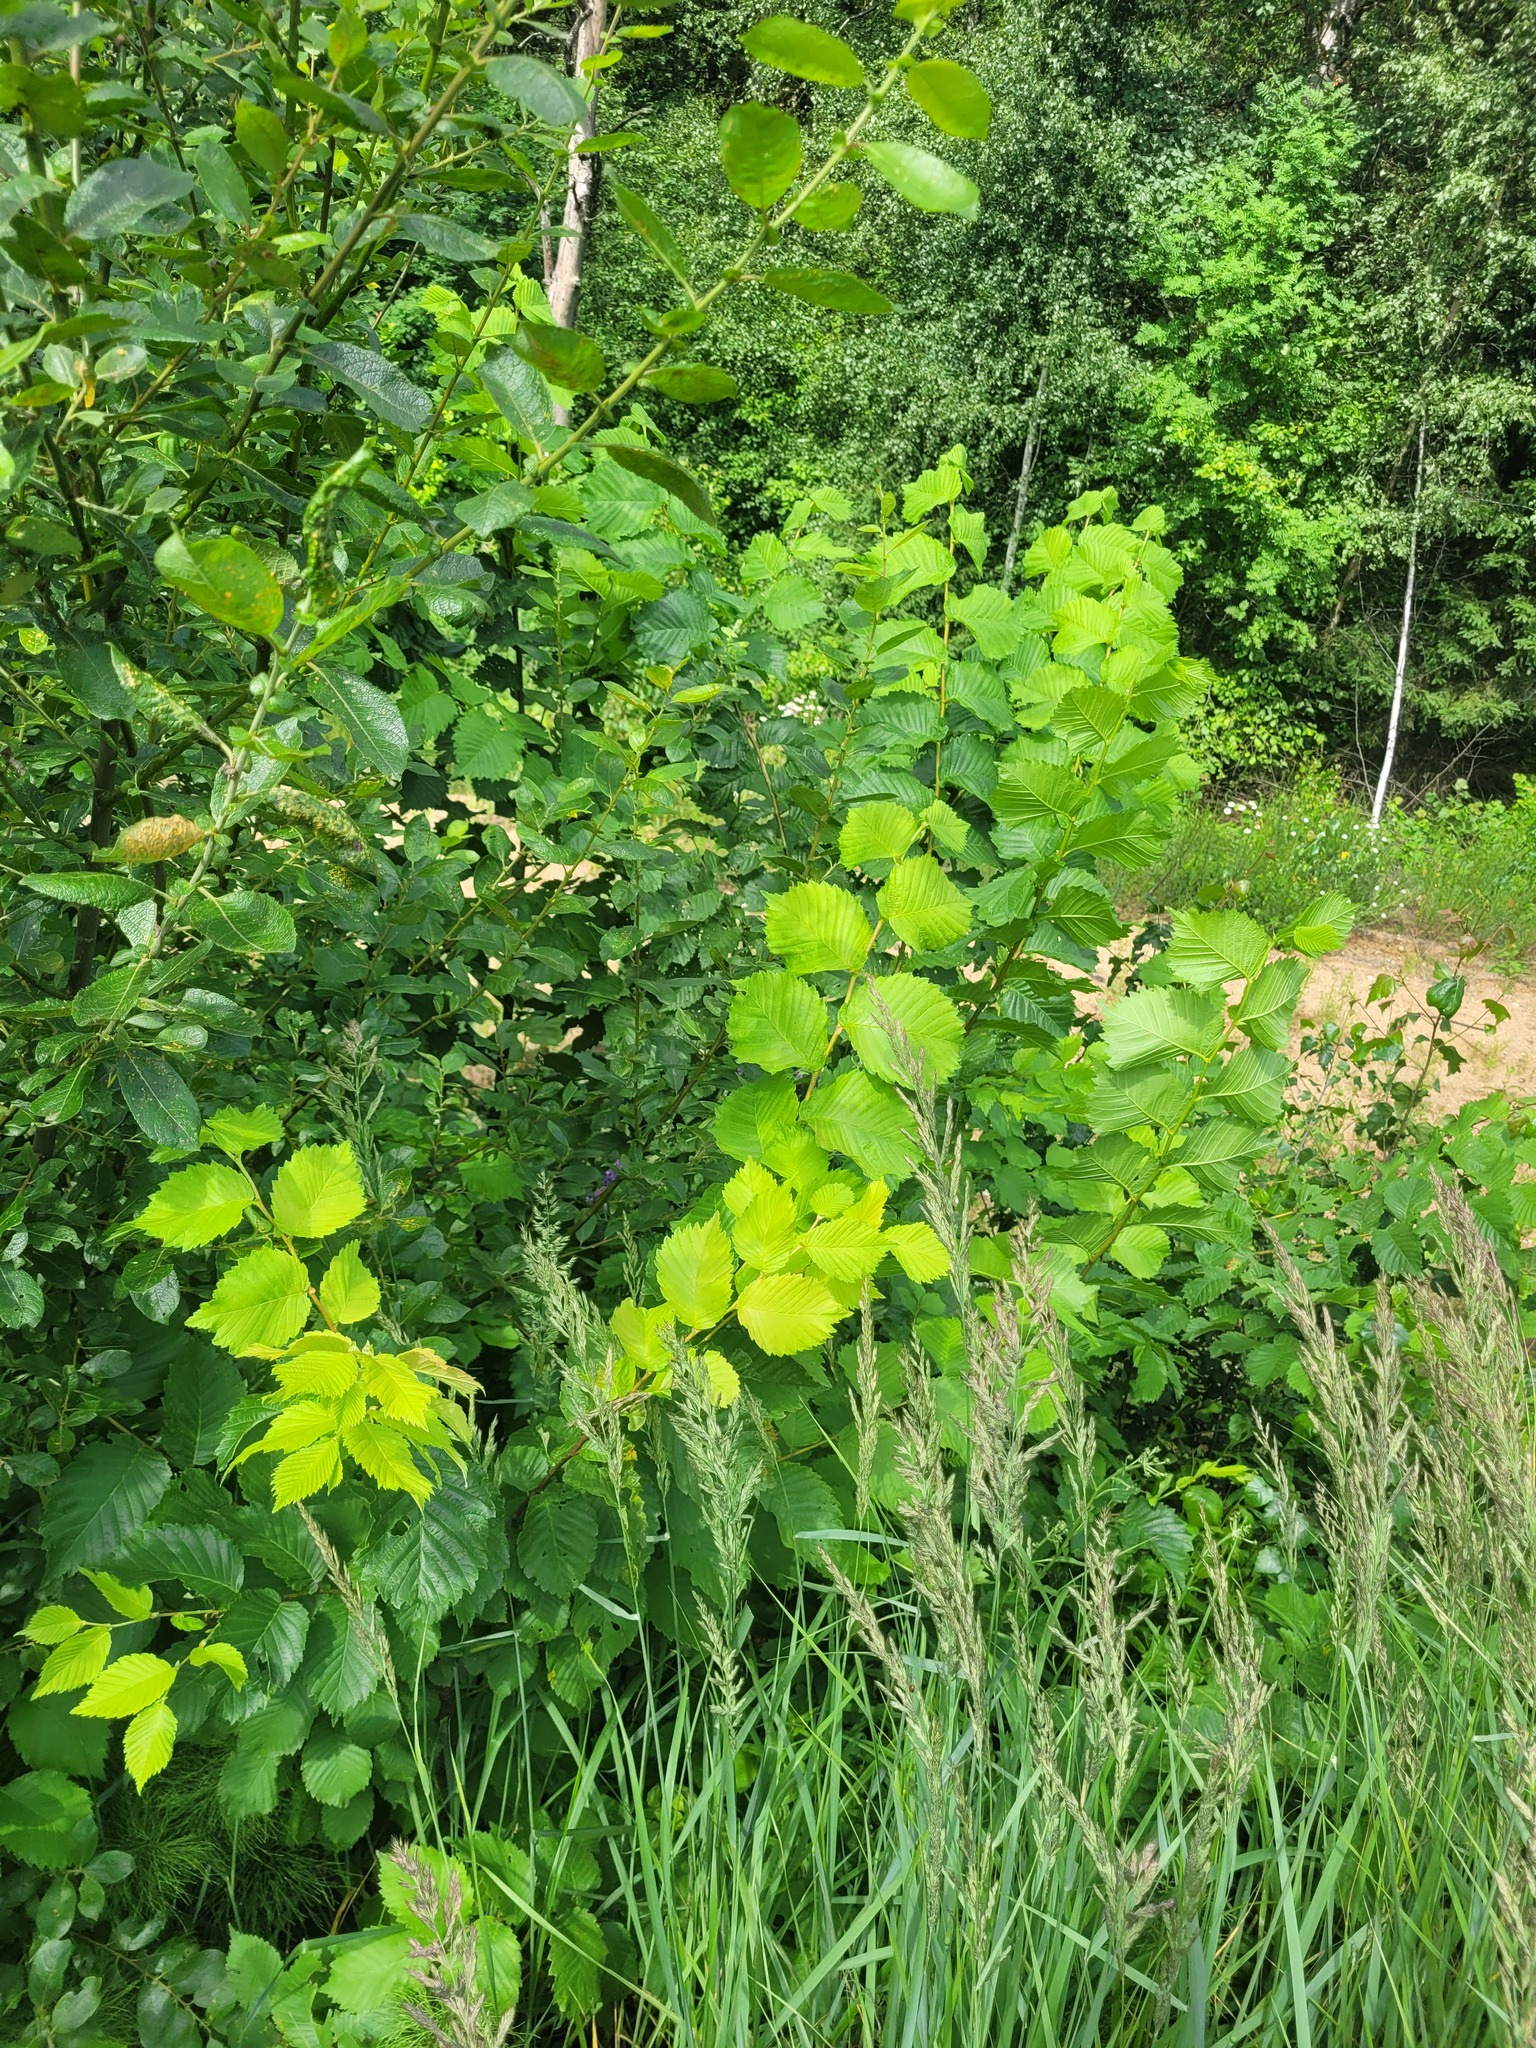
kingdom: Plantae
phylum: Tracheophyta
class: Magnoliopsida
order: Rosales
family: Ulmaceae
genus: Ulmus
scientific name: Ulmus laevis
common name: European white-elm
